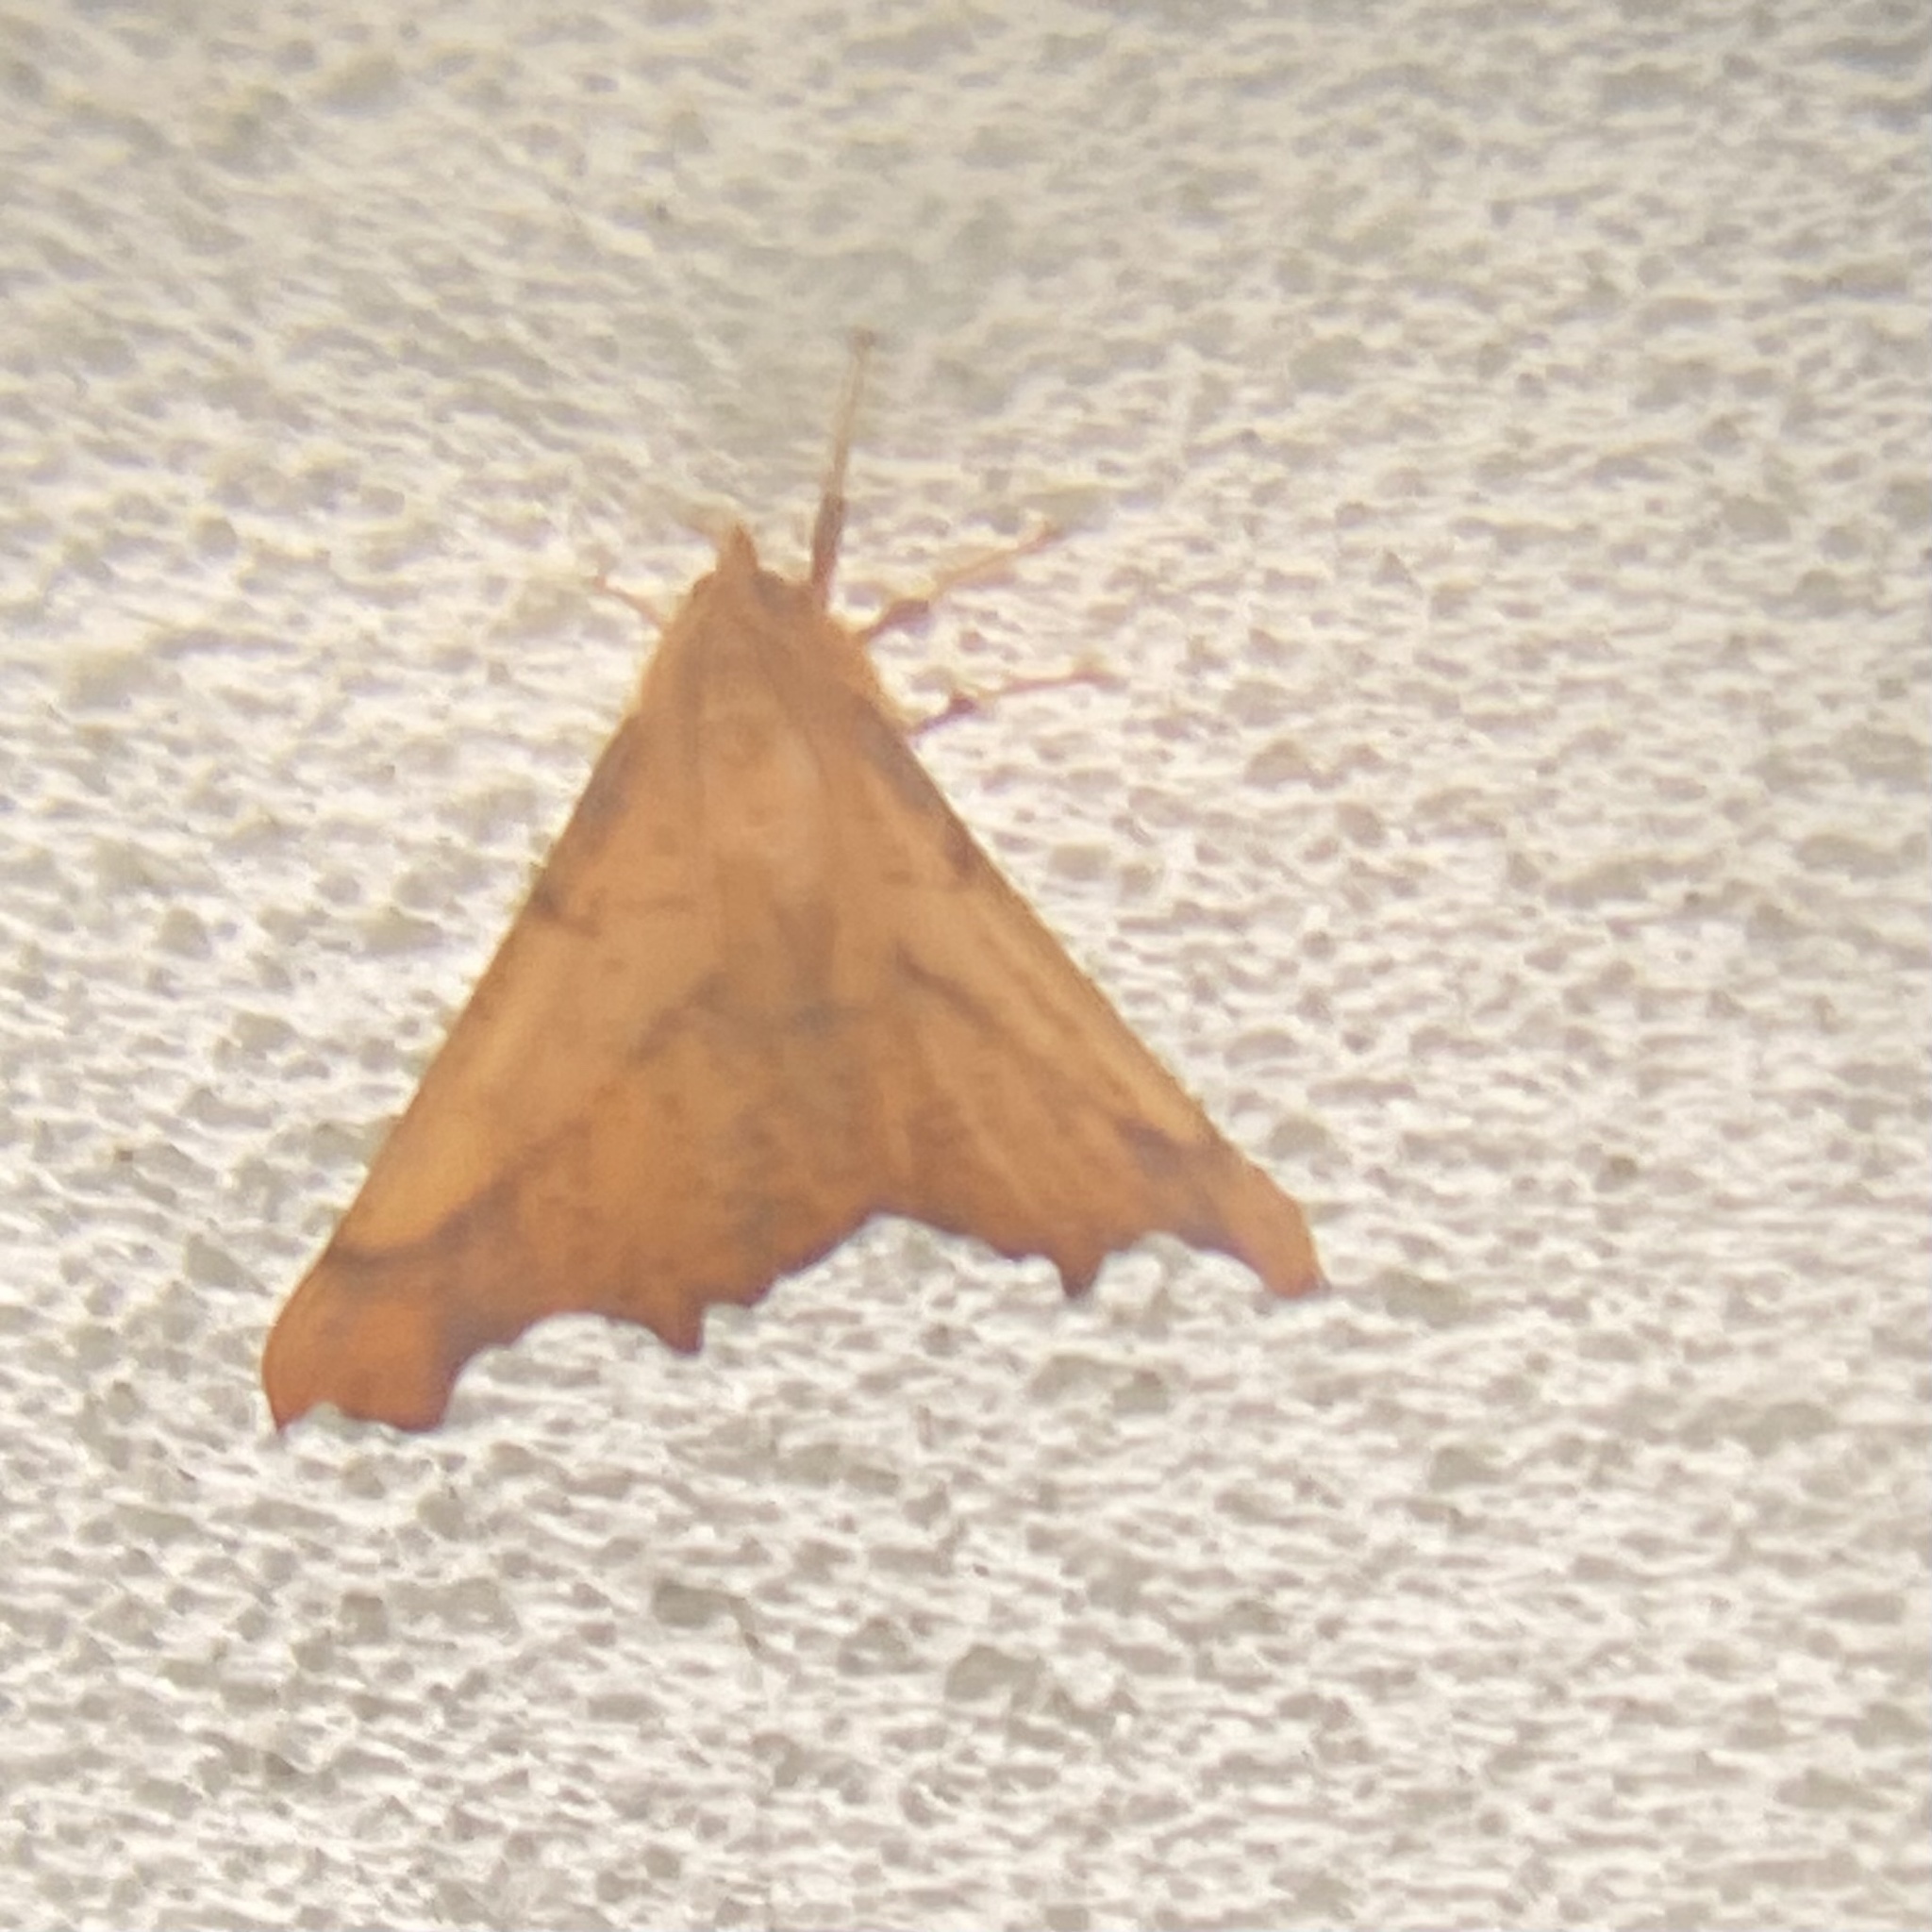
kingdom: Animalia
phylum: Arthropoda
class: Insecta
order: Lepidoptera
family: Geometridae
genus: Ennomos
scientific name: Ennomos magnaria
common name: Maple spanworm
